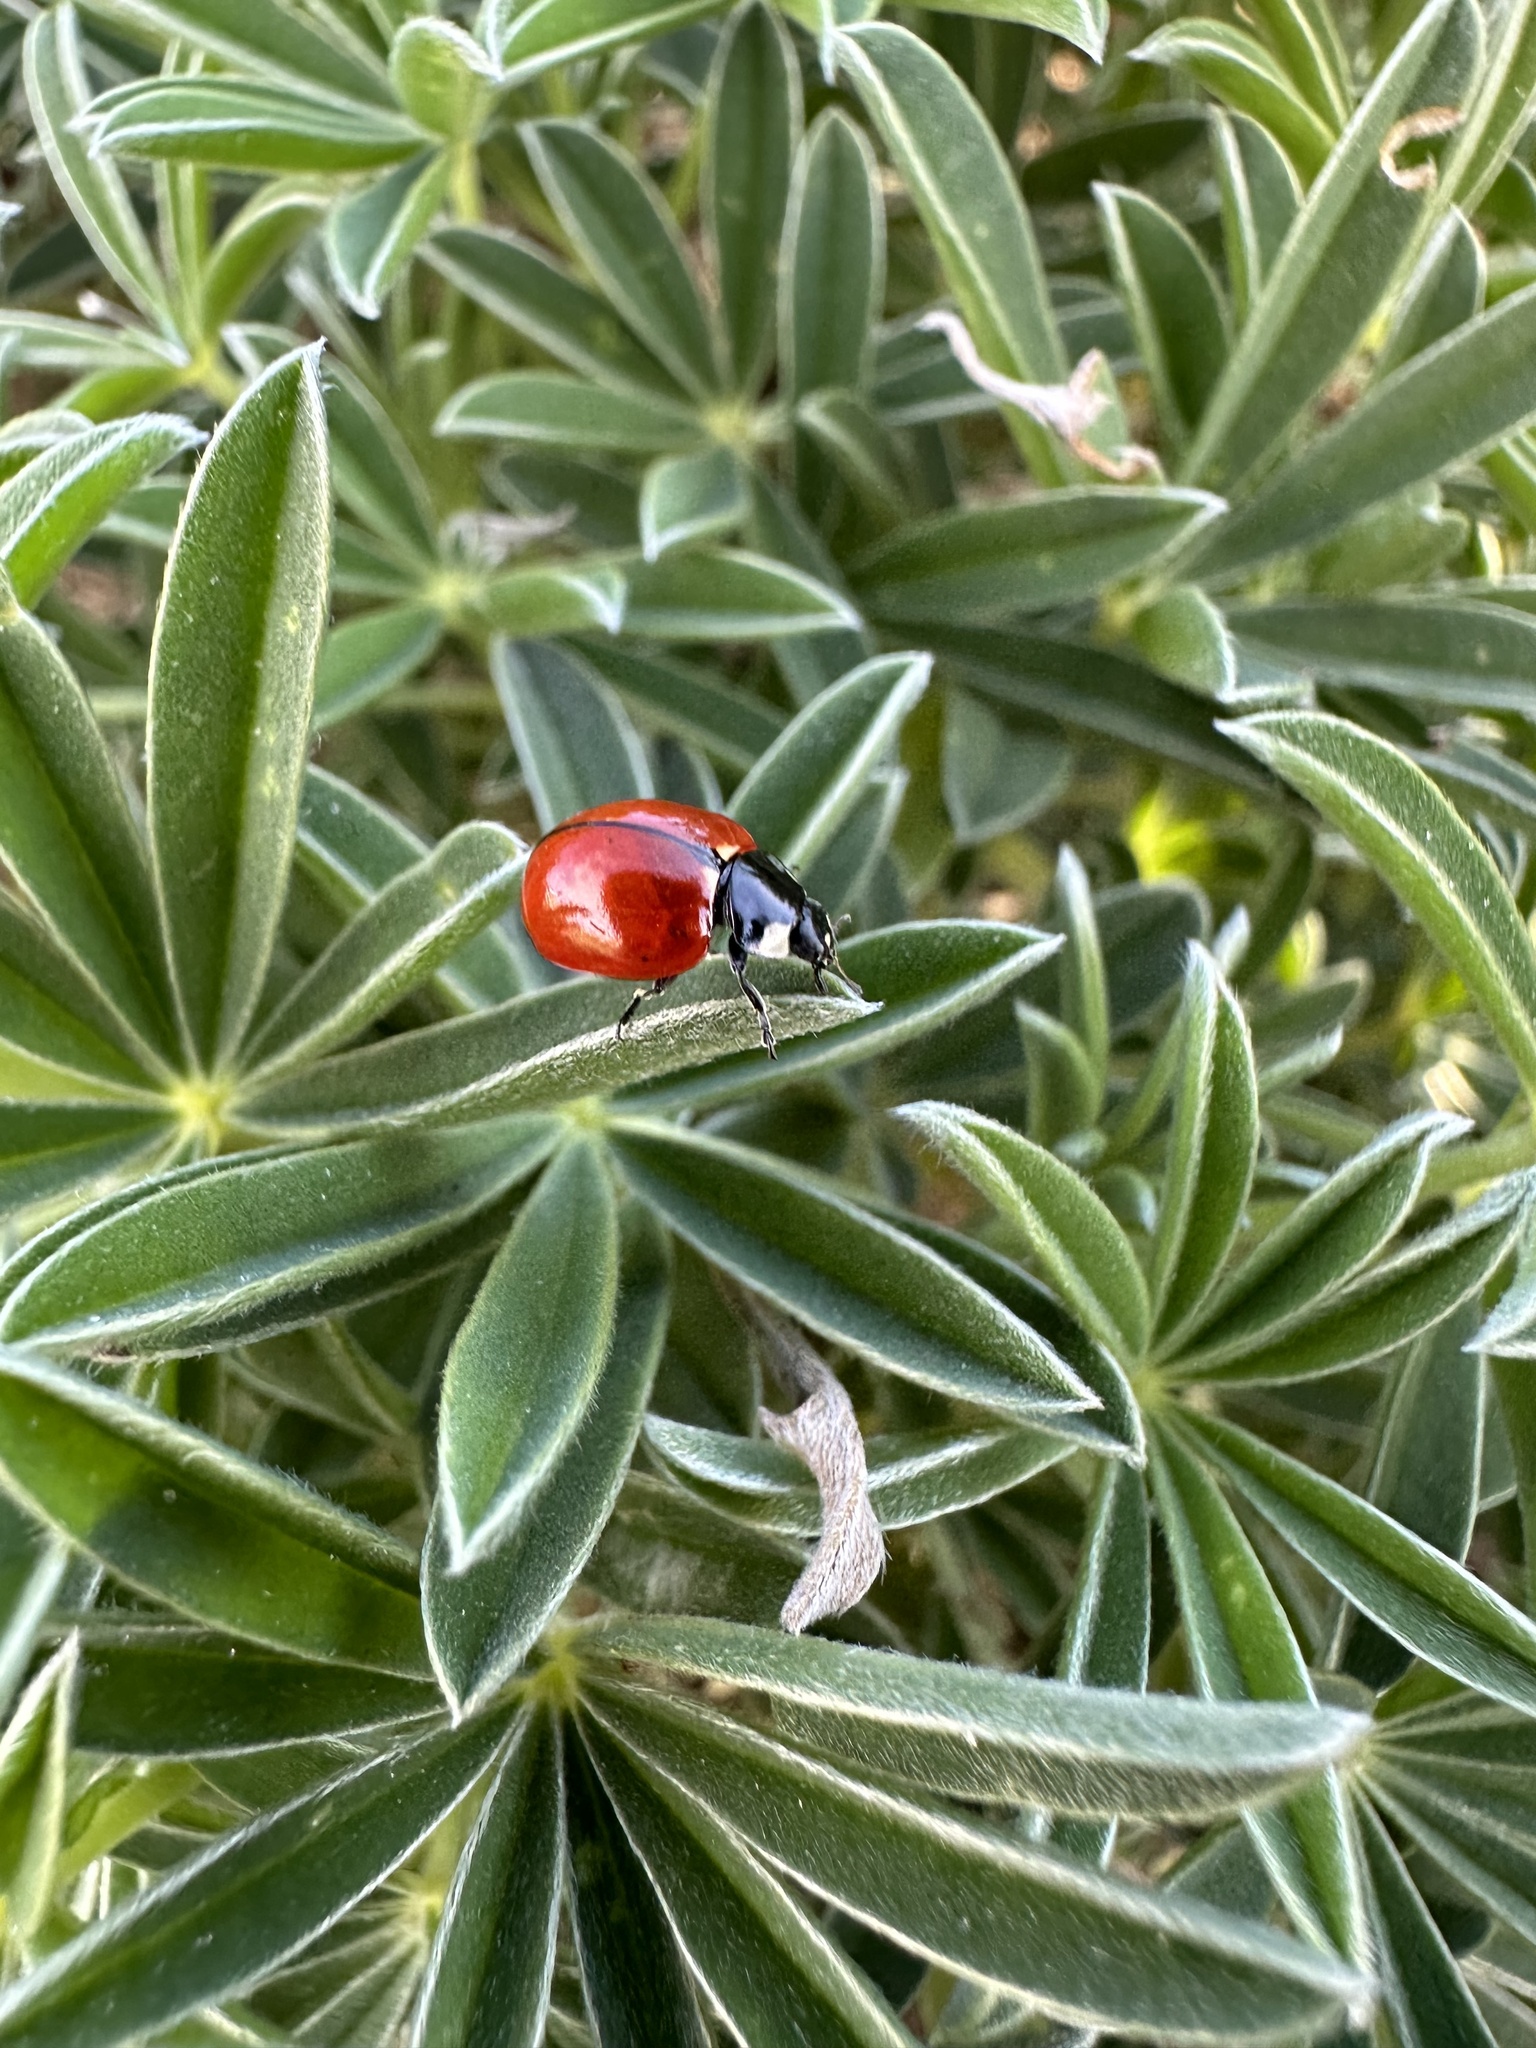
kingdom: Animalia
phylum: Arthropoda
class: Insecta
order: Coleoptera
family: Coccinellidae
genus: Coccinella
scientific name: Coccinella californica
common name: Lady beetle
